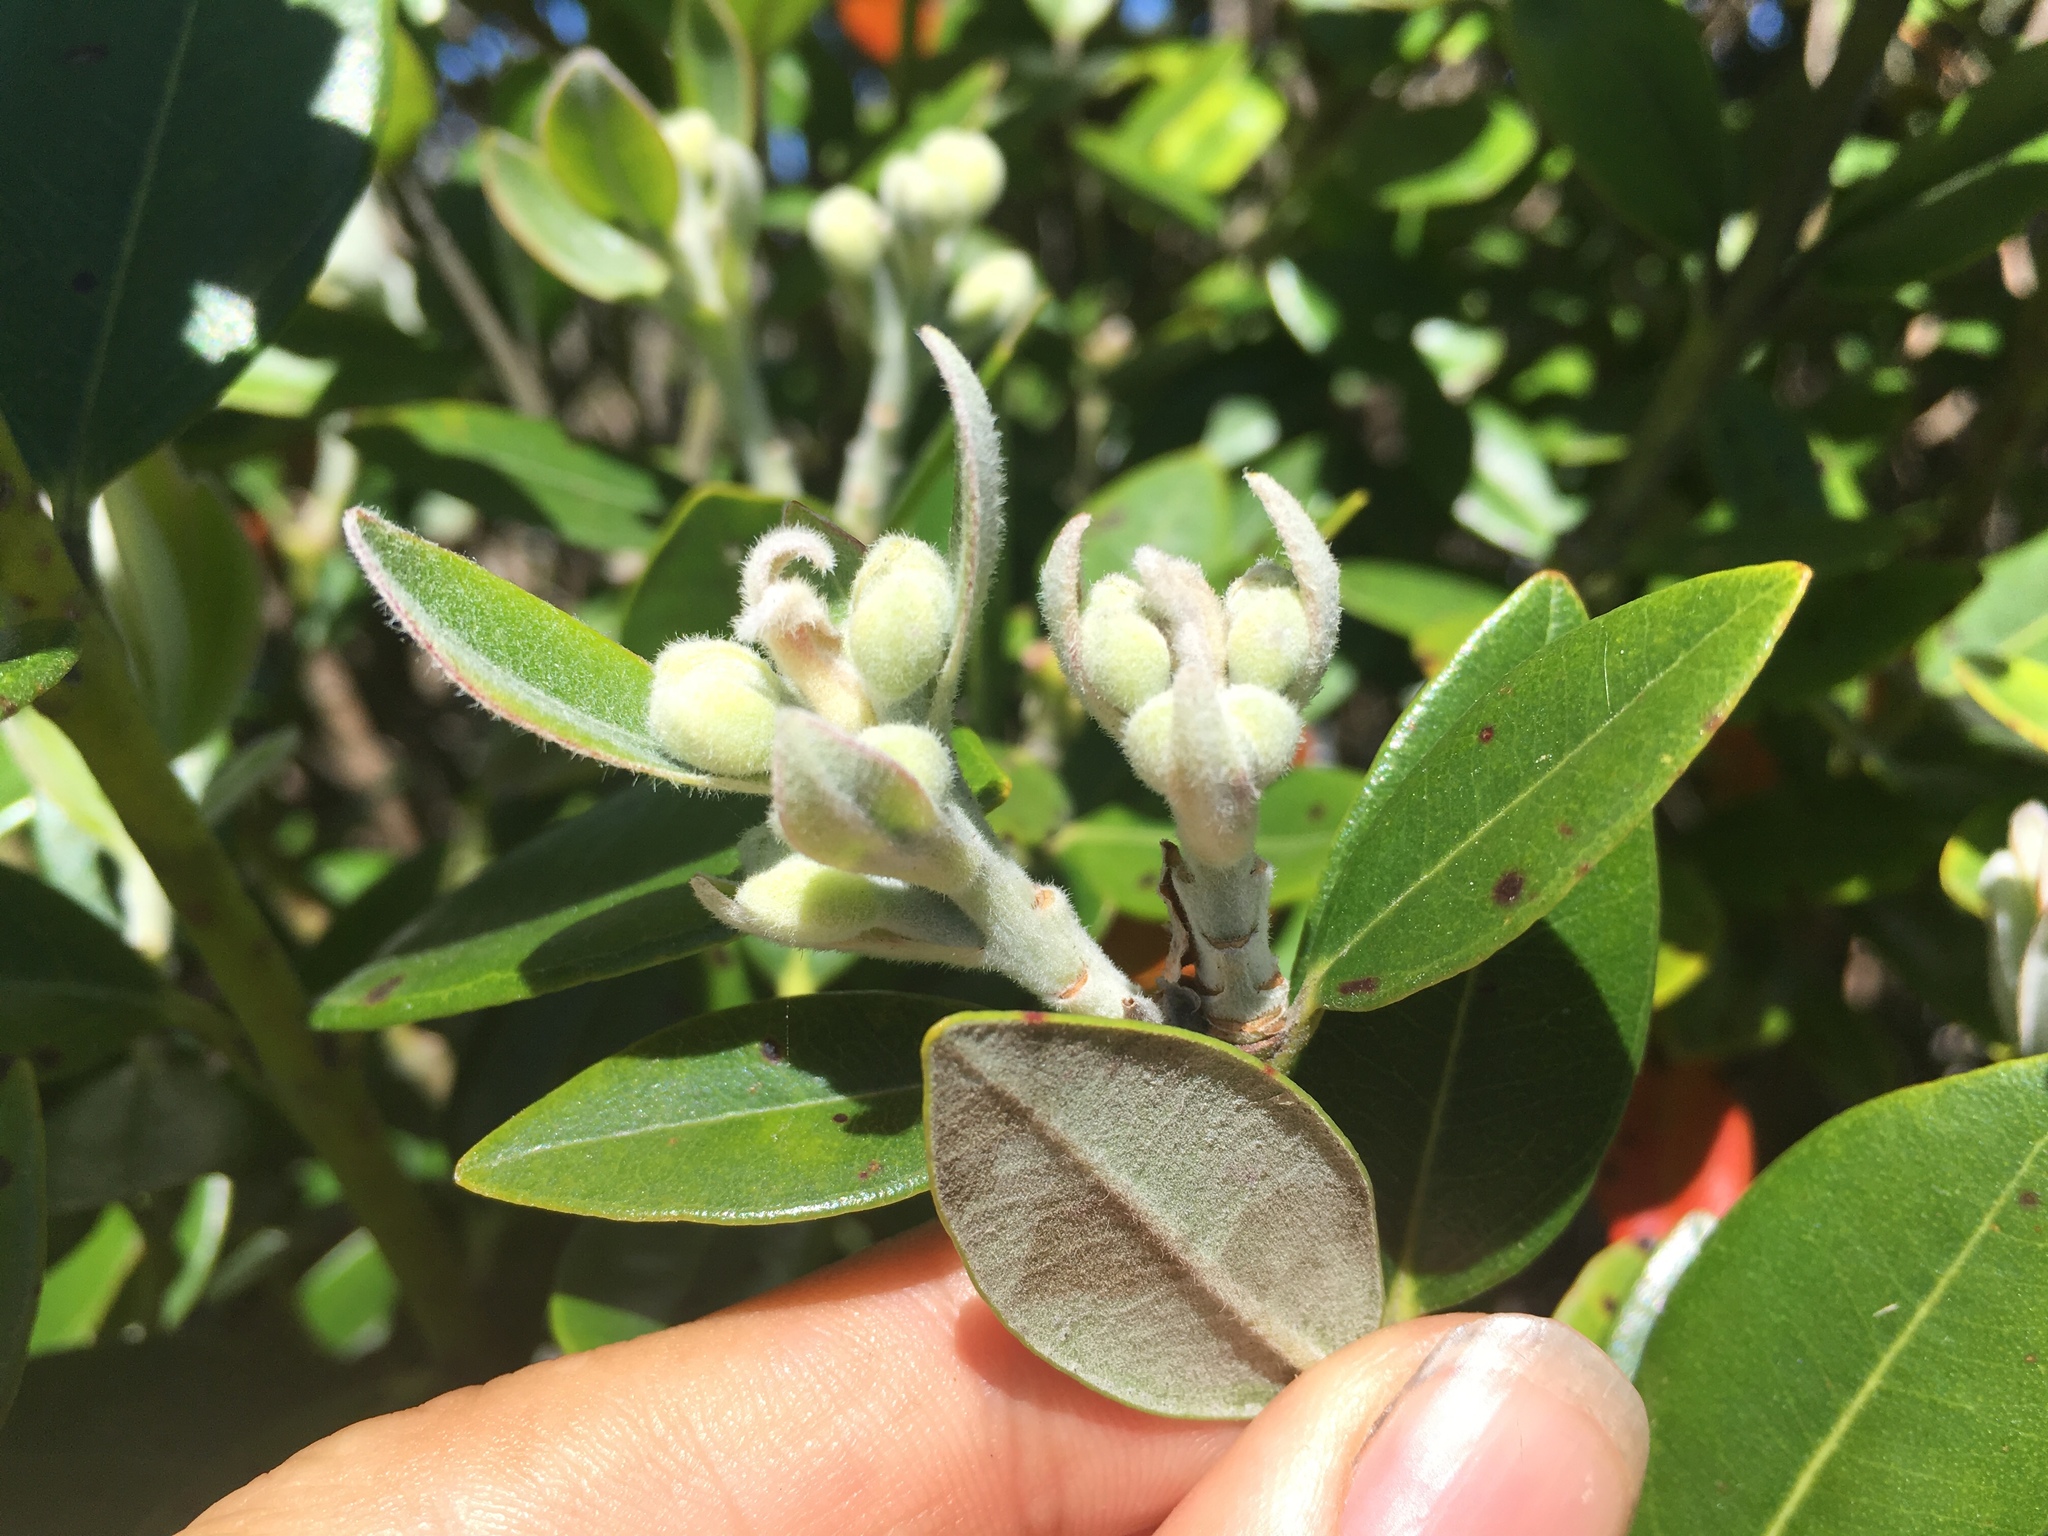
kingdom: Plantae
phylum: Tracheophyta
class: Magnoliopsida
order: Myrtales
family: Myrtaceae
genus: Metrosideros
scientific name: Metrosideros excelsa
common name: New zealand christmastree
